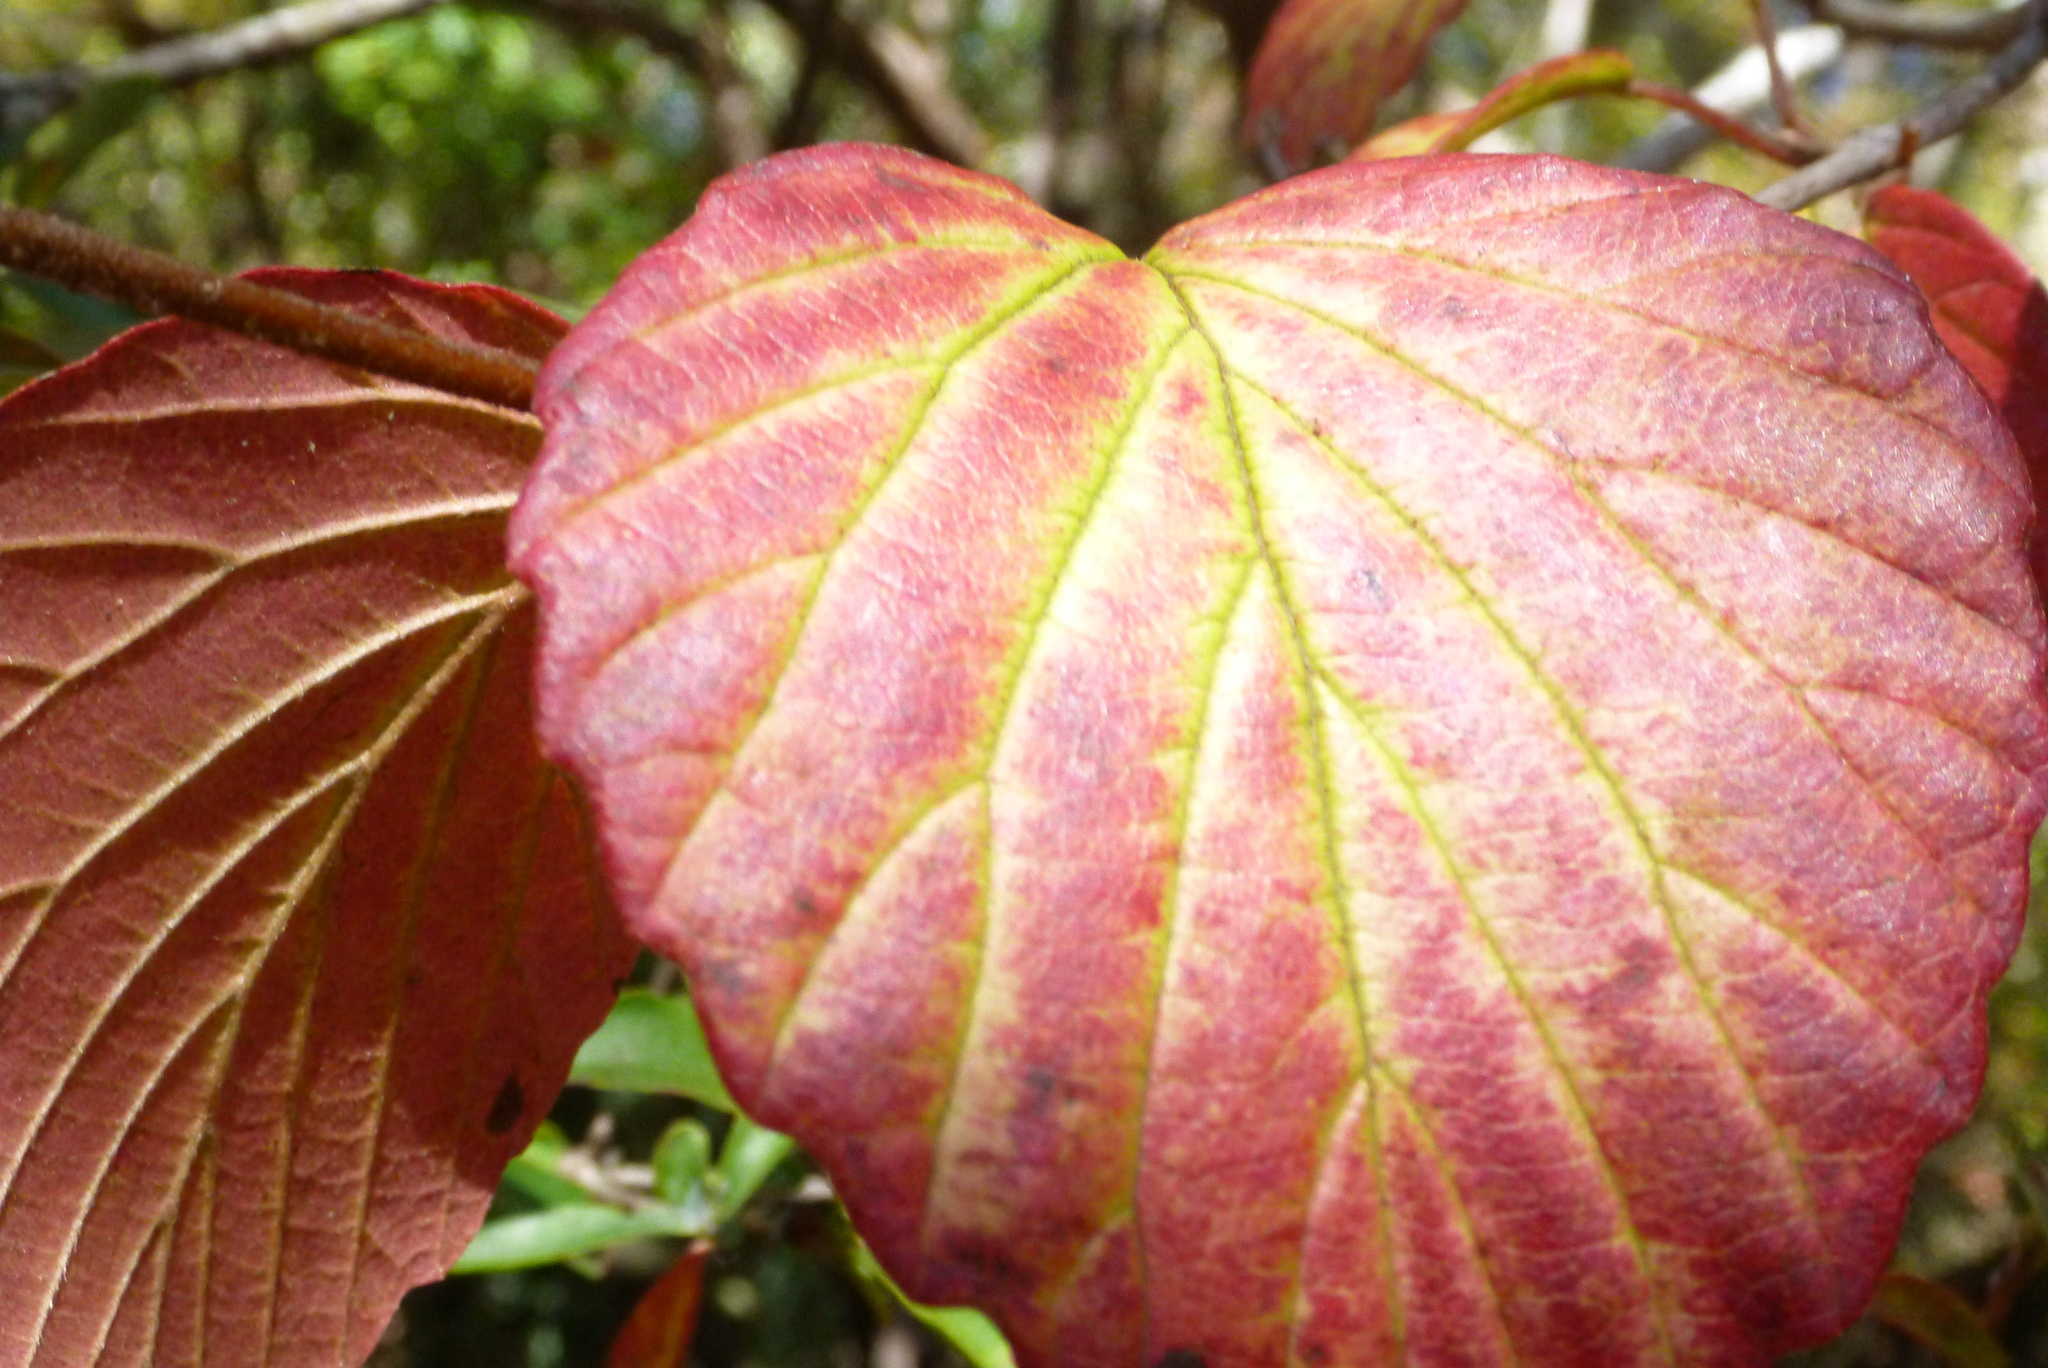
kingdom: Plantae
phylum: Tracheophyta
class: Magnoliopsida
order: Dipsacales
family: Viburnaceae
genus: Viburnum
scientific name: Viburnum scabrellum
